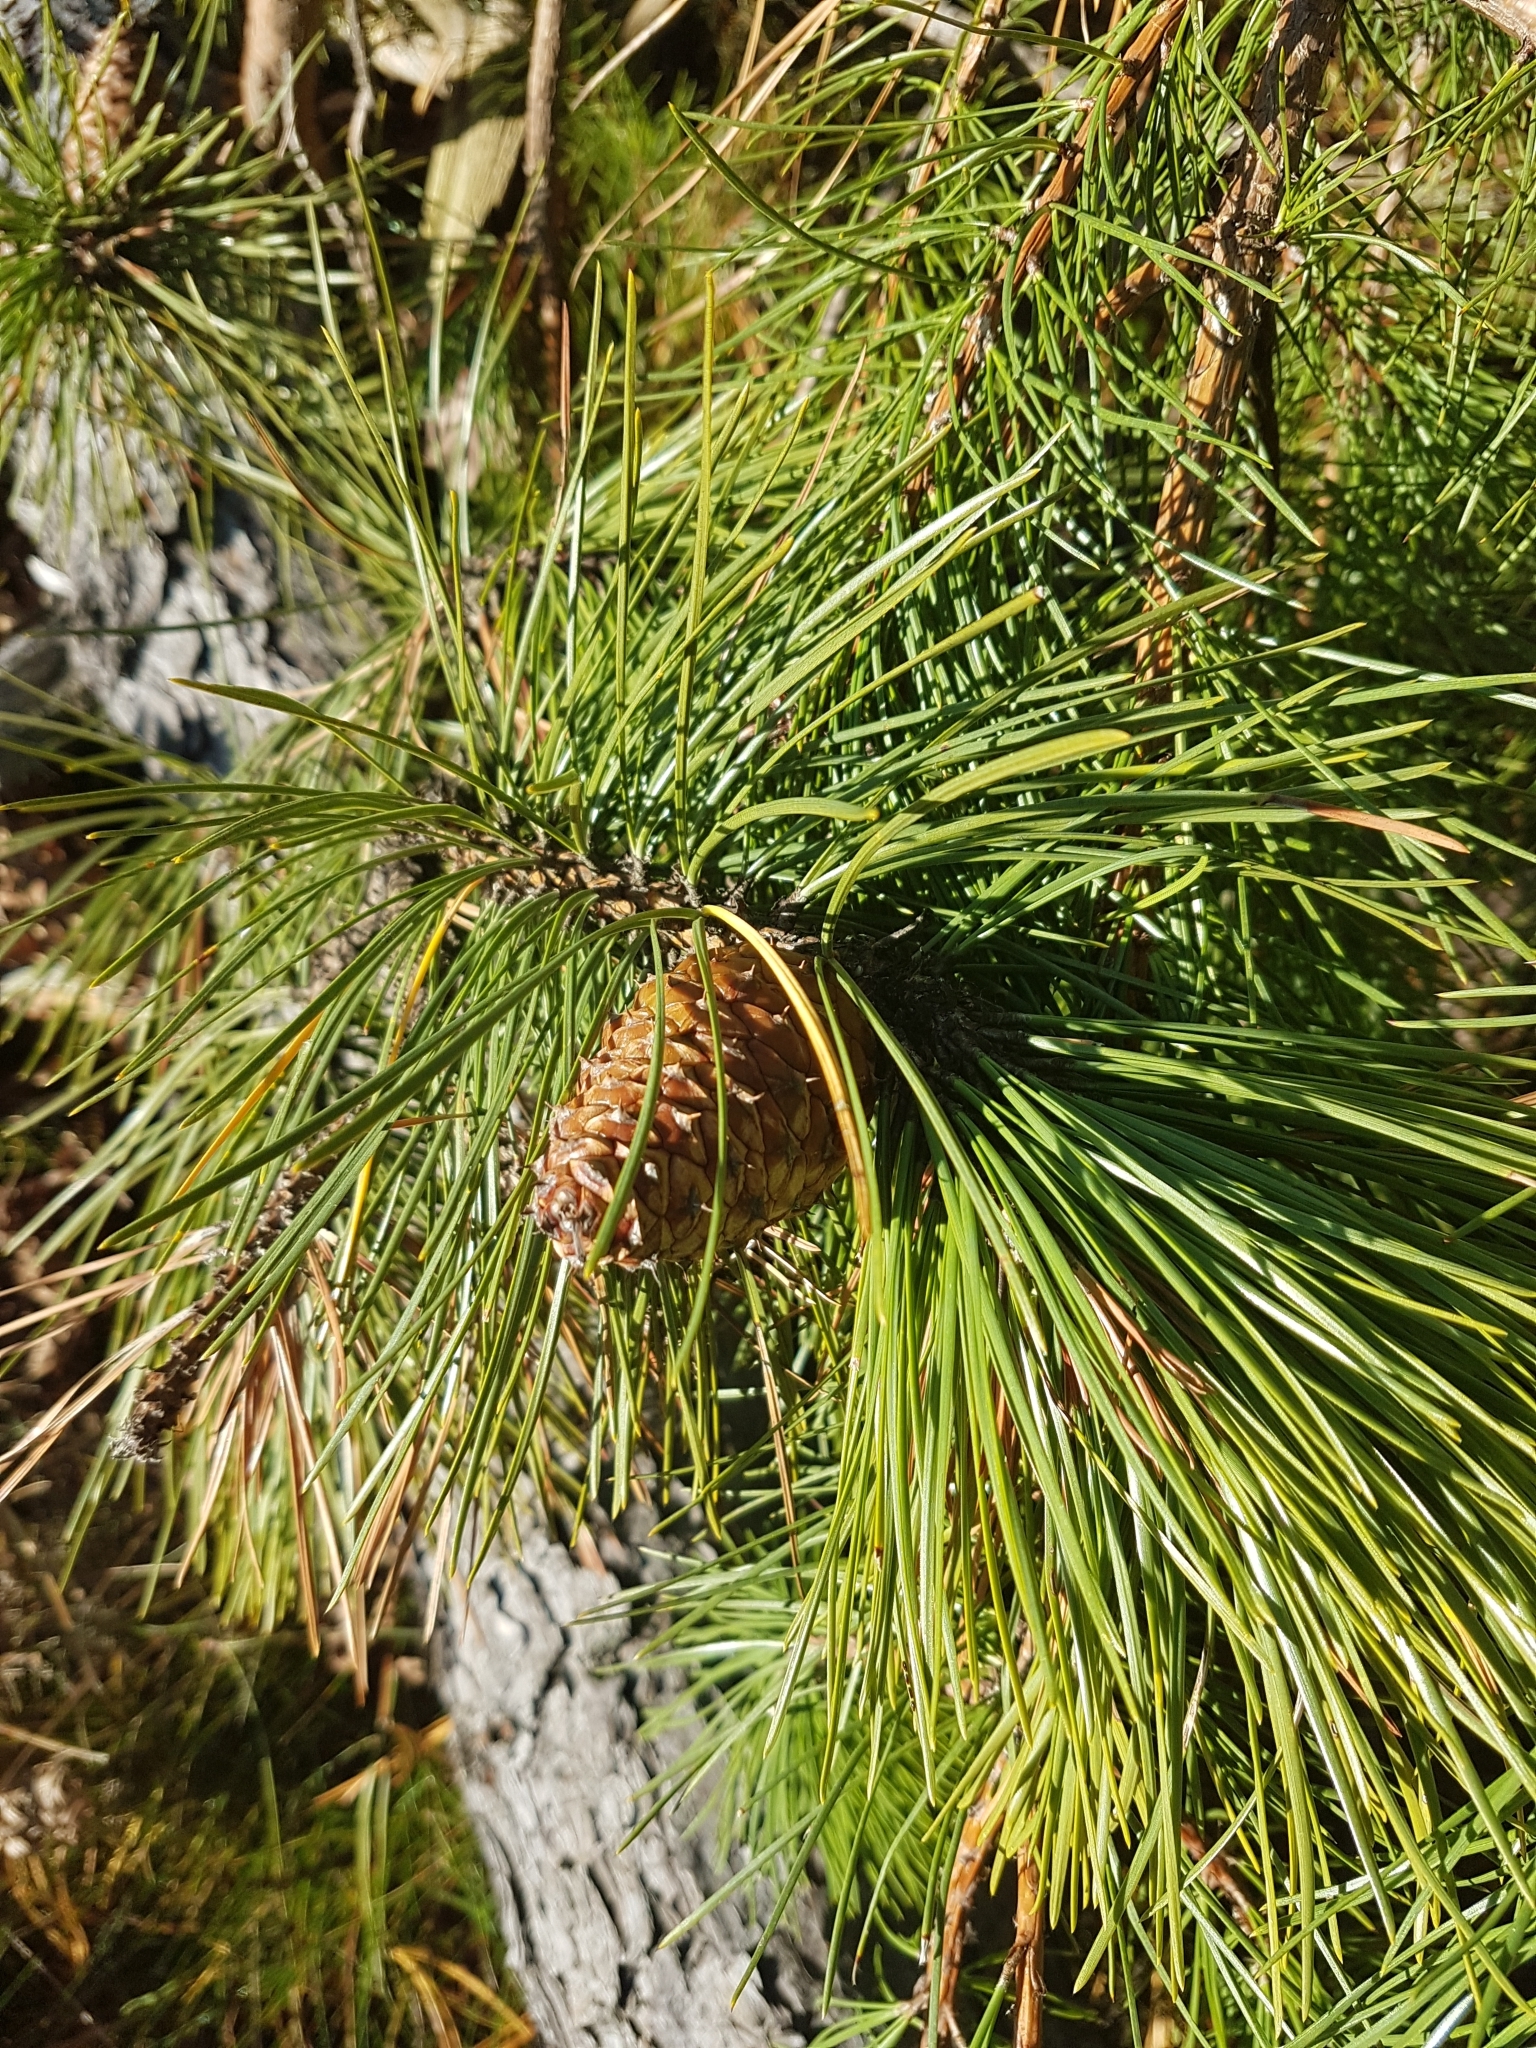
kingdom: Plantae
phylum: Tracheophyta
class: Pinopsida
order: Pinales
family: Pinaceae
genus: Pinus
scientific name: Pinus rigida
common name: Pitch pine
